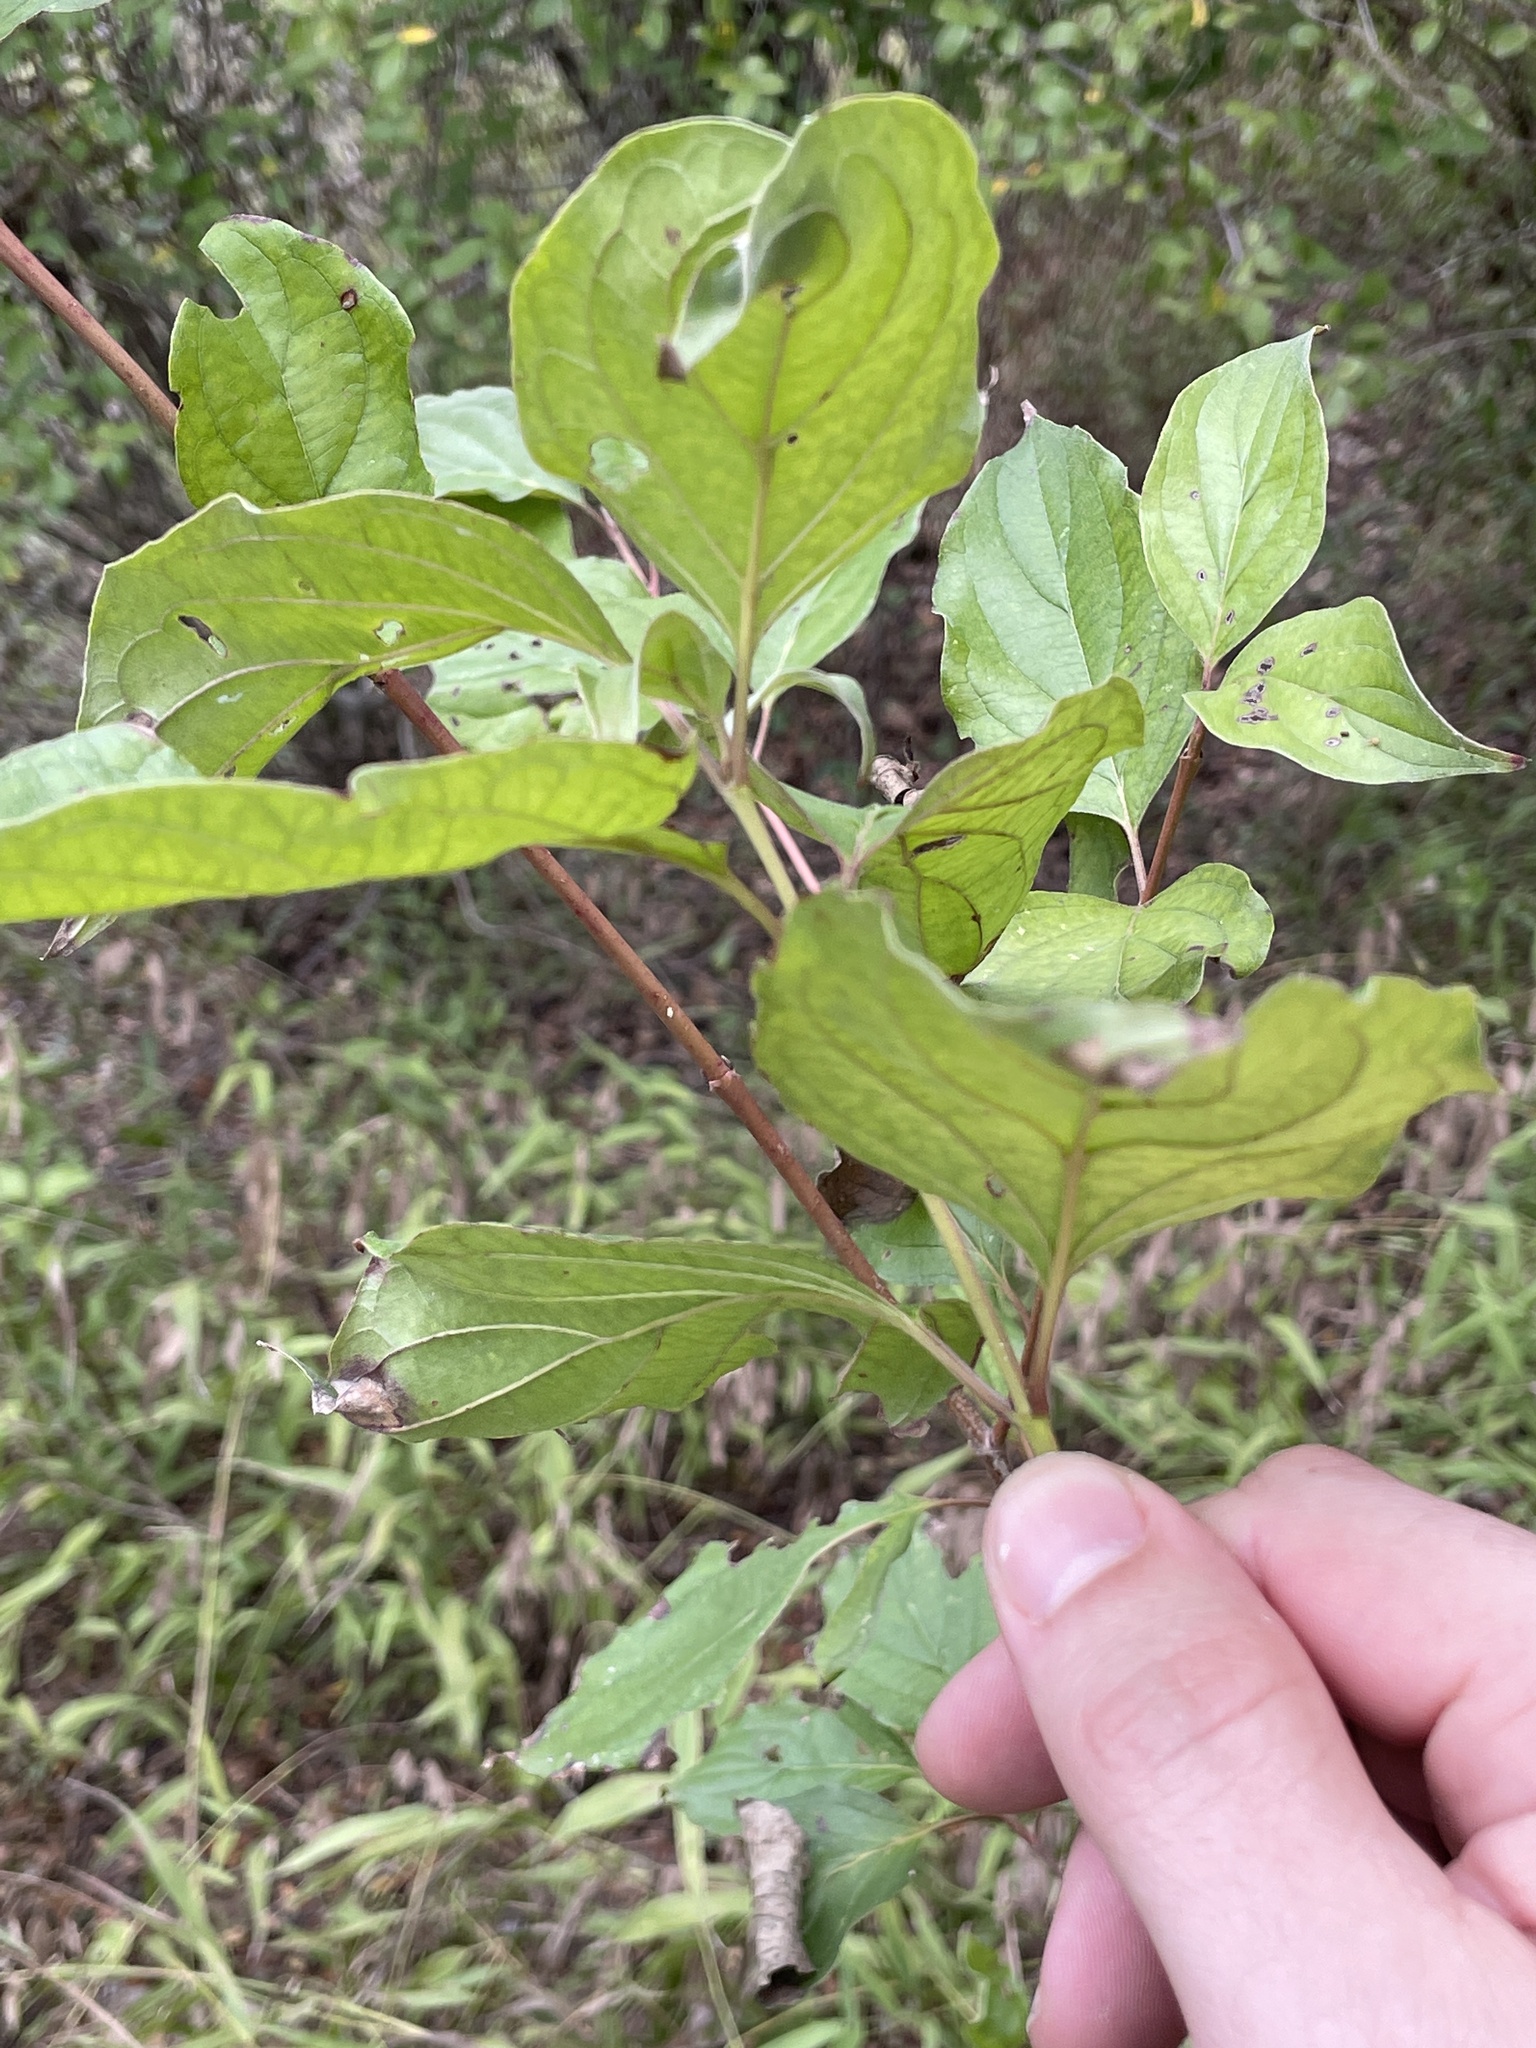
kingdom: Plantae
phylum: Tracheophyta
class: Magnoliopsida
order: Cornales
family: Cornaceae
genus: Cornus
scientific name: Cornus drummondii
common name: Rough-leaf dogwood
